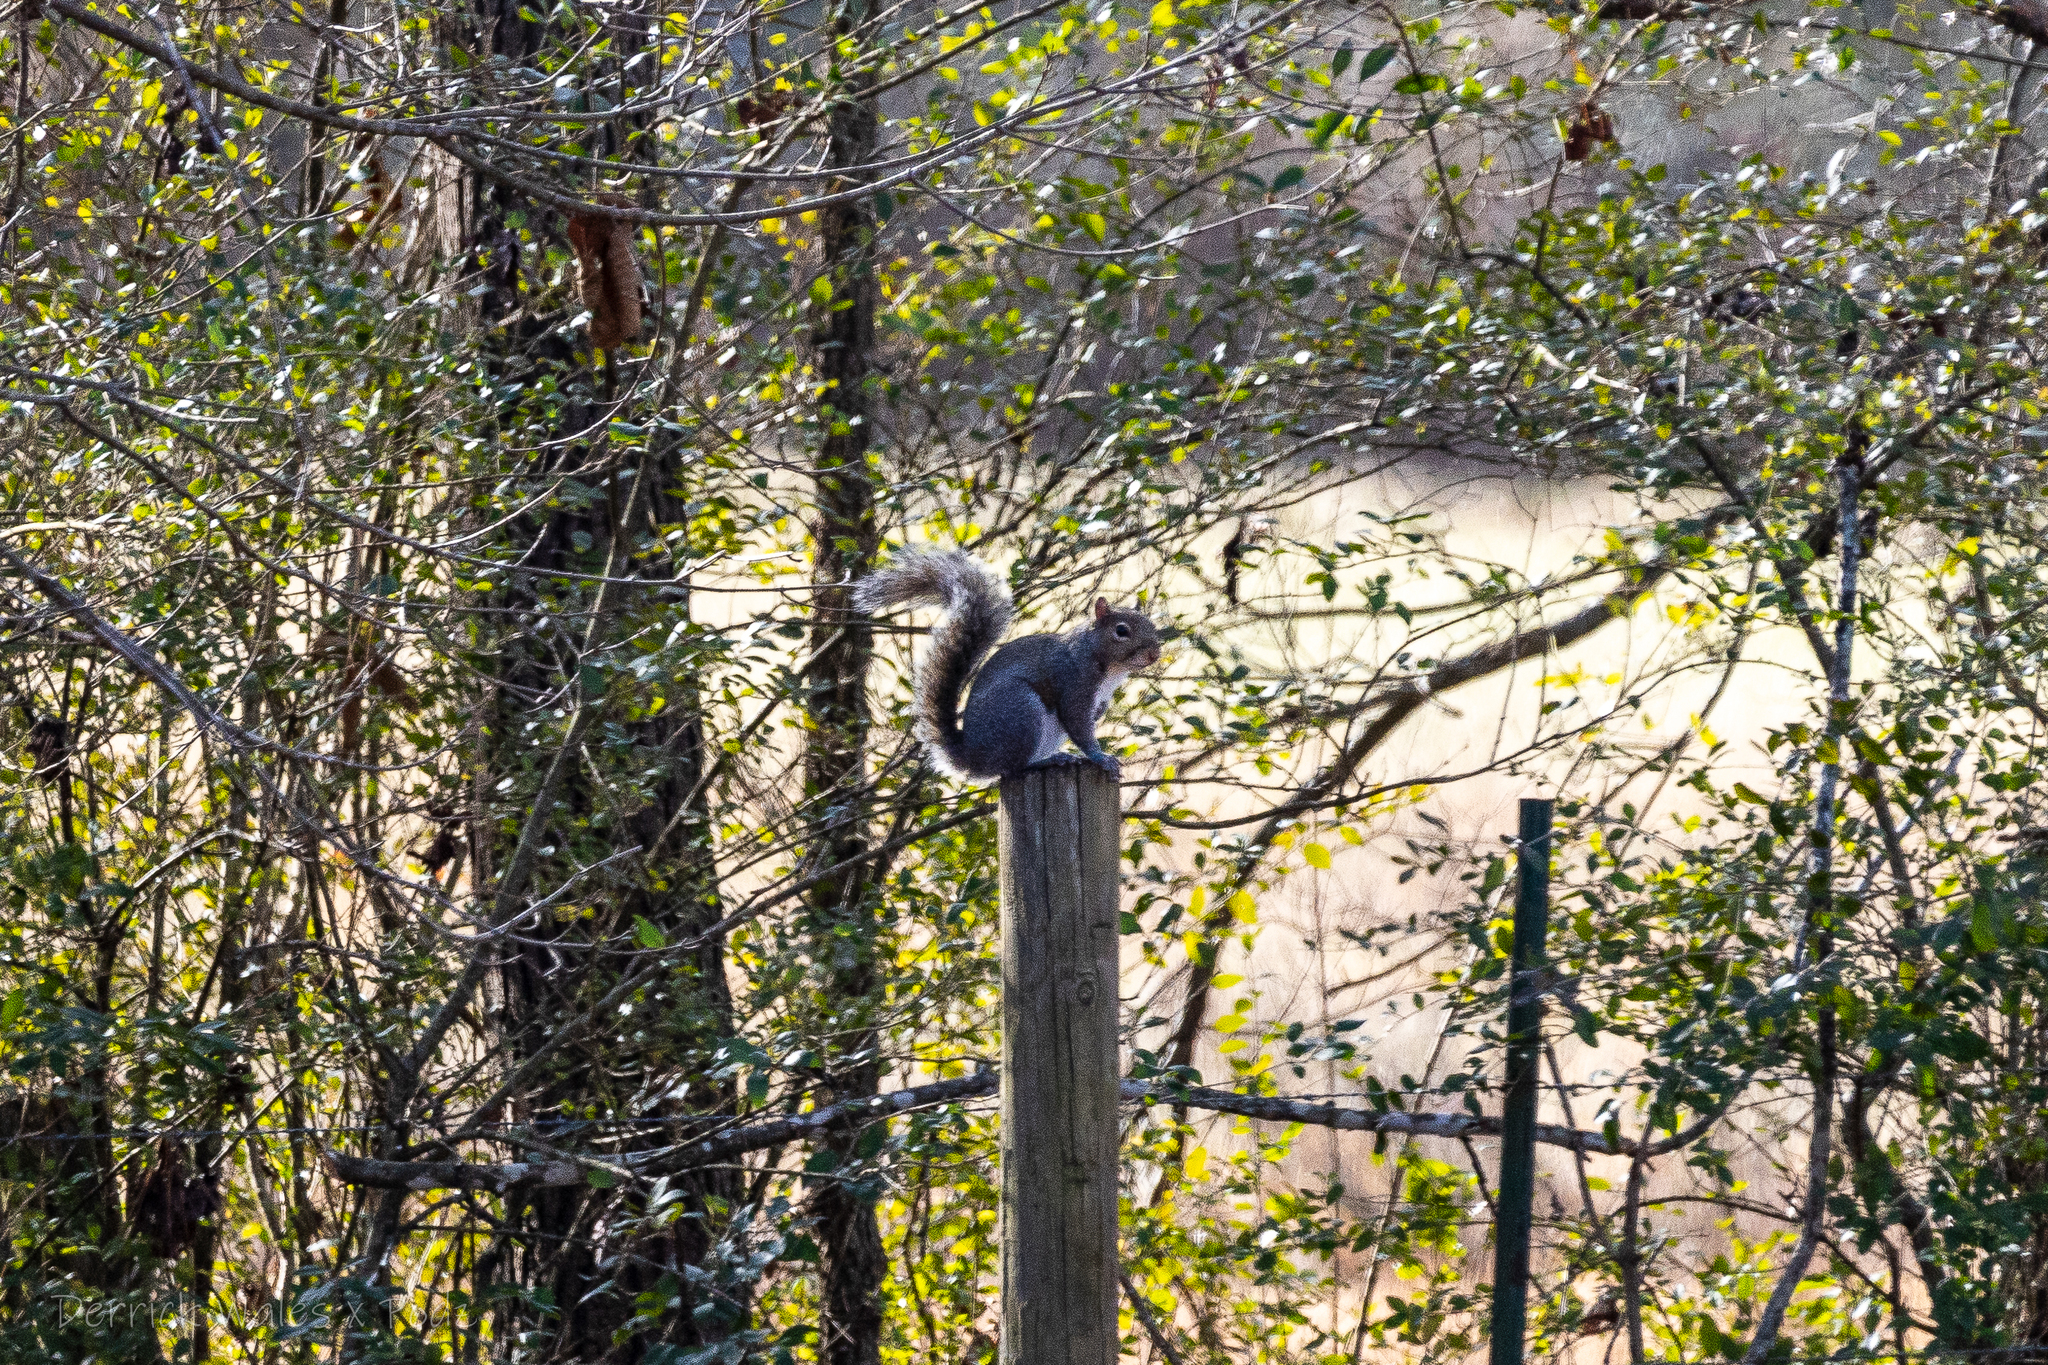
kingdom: Animalia
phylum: Chordata
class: Mammalia
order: Rodentia
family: Sciuridae
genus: Sciurus
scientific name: Sciurus carolinensis
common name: Eastern gray squirrel
